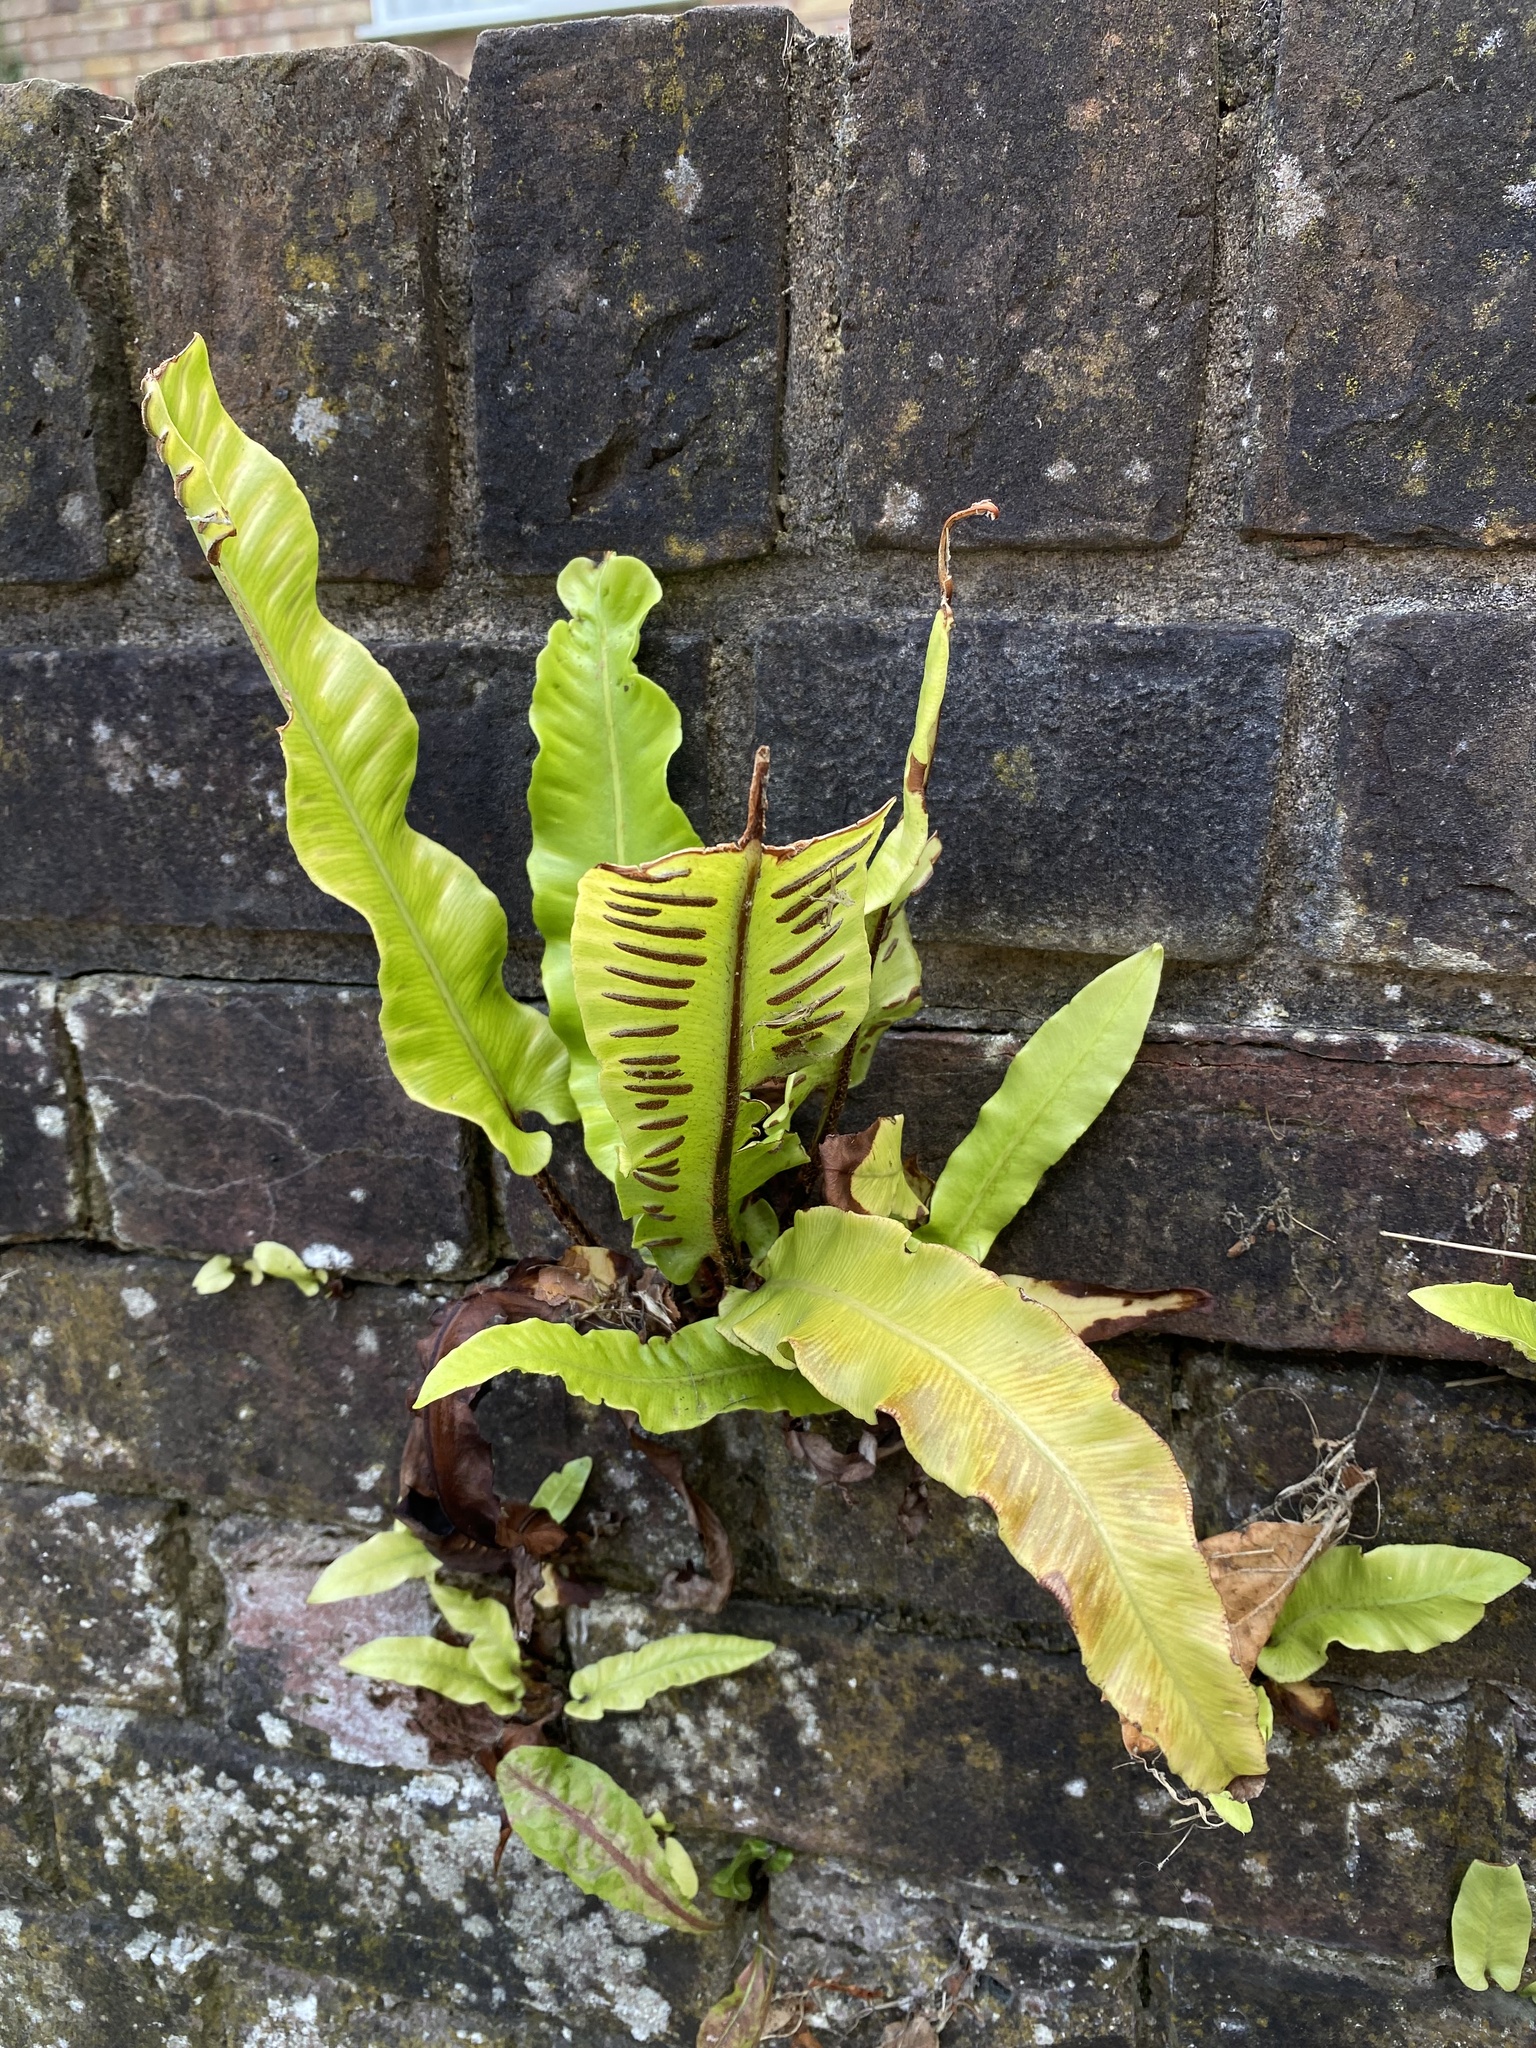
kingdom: Plantae
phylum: Tracheophyta
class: Polypodiopsida
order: Polypodiales
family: Aspleniaceae
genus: Asplenium
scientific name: Asplenium scolopendrium
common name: Hart's-tongue fern
